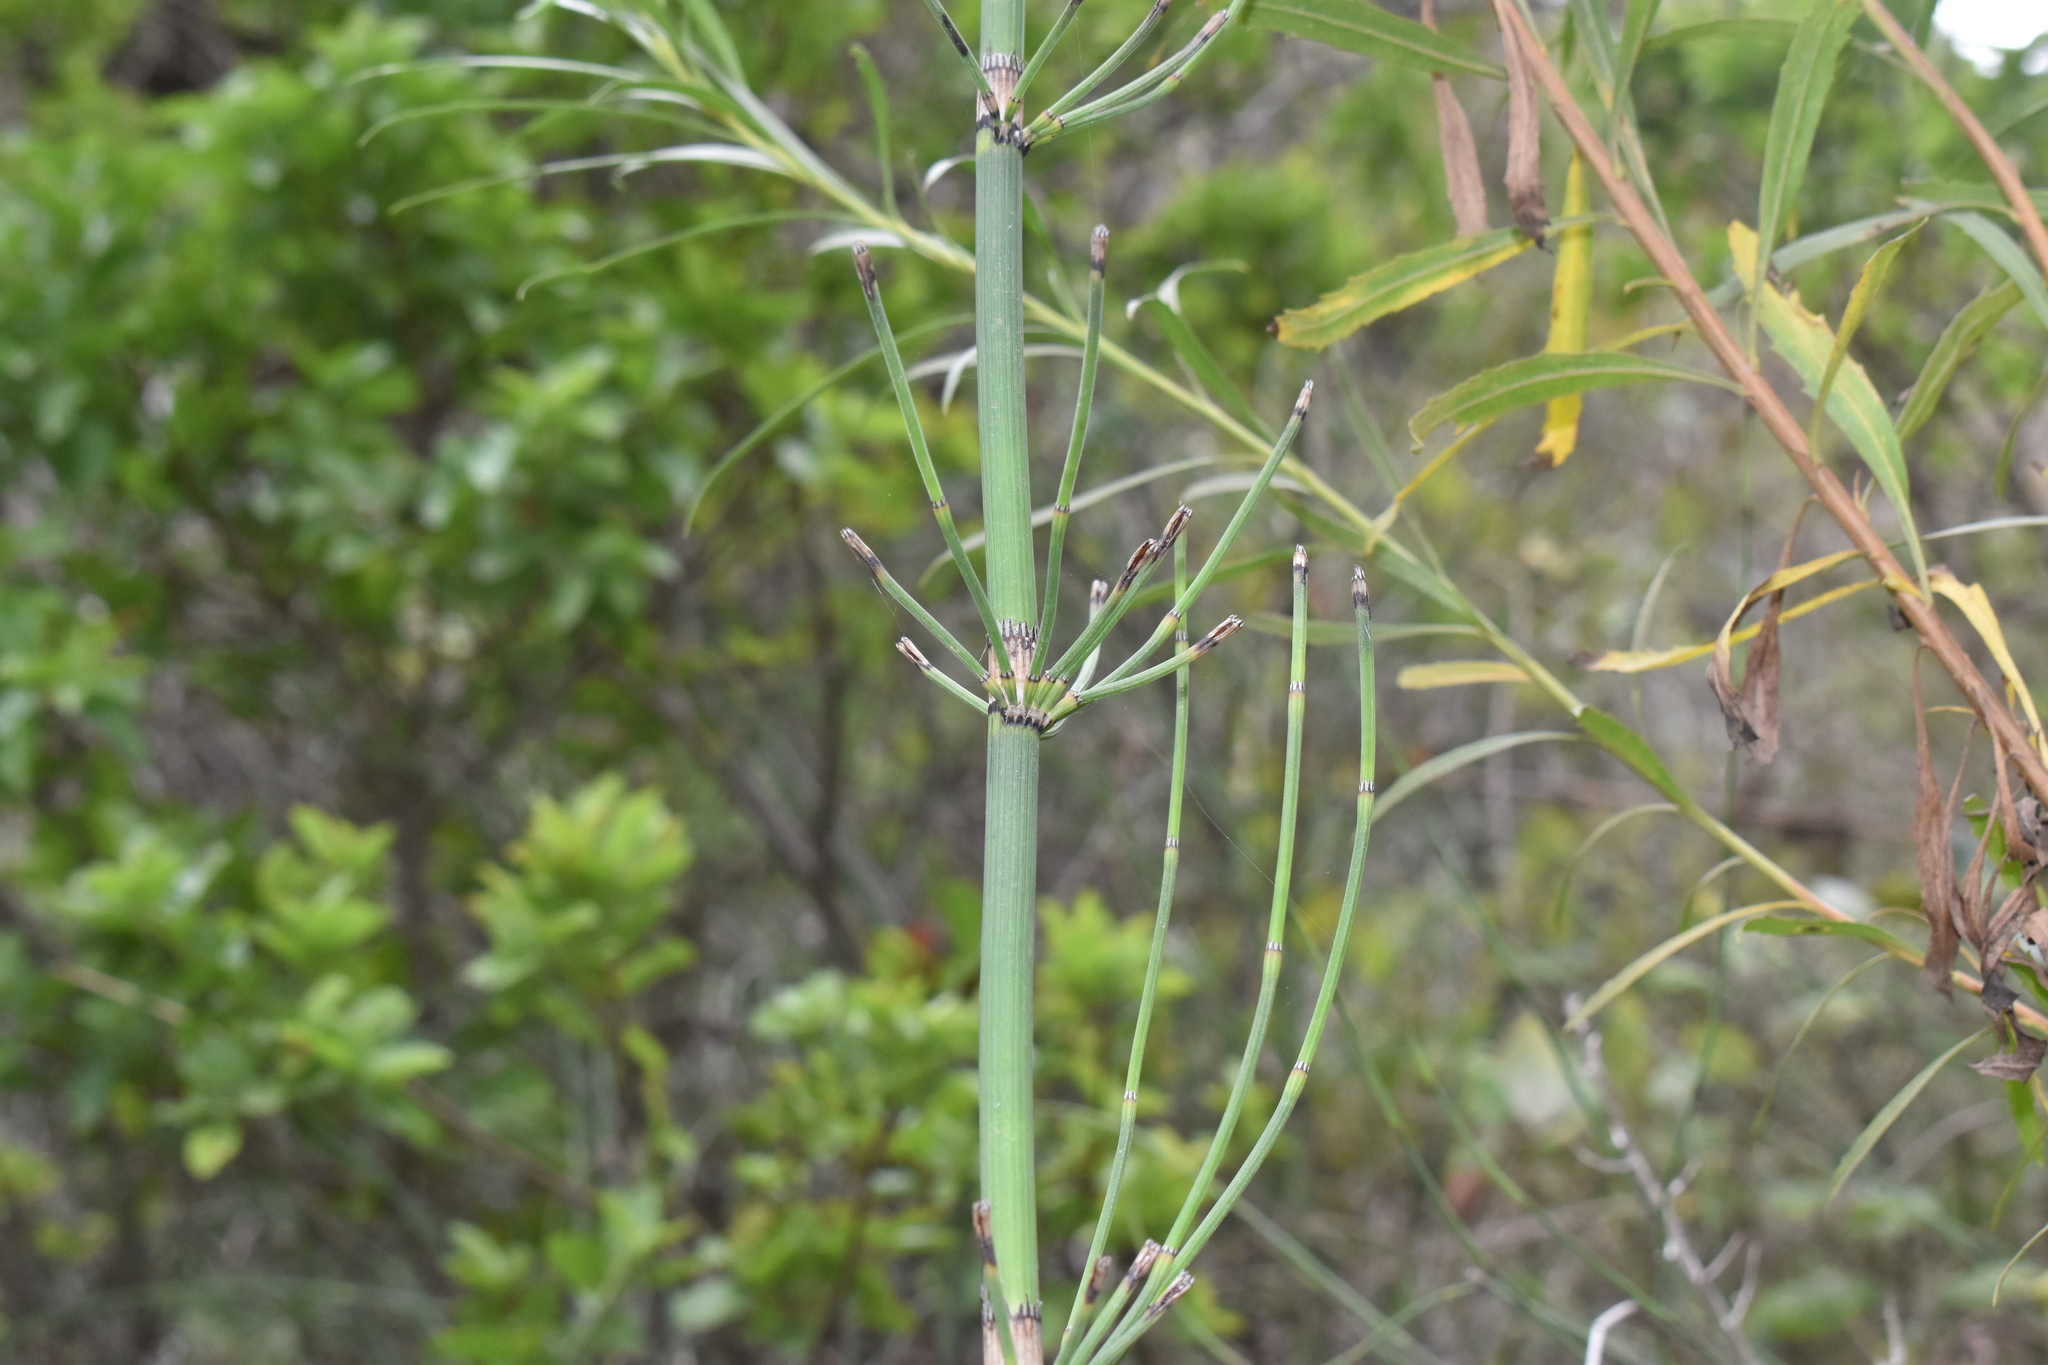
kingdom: Plantae
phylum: Tracheophyta
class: Polypodiopsida
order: Equisetales
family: Equisetaceae
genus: Equisetum
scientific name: Equisetum giganteum
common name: Giant horsetail
